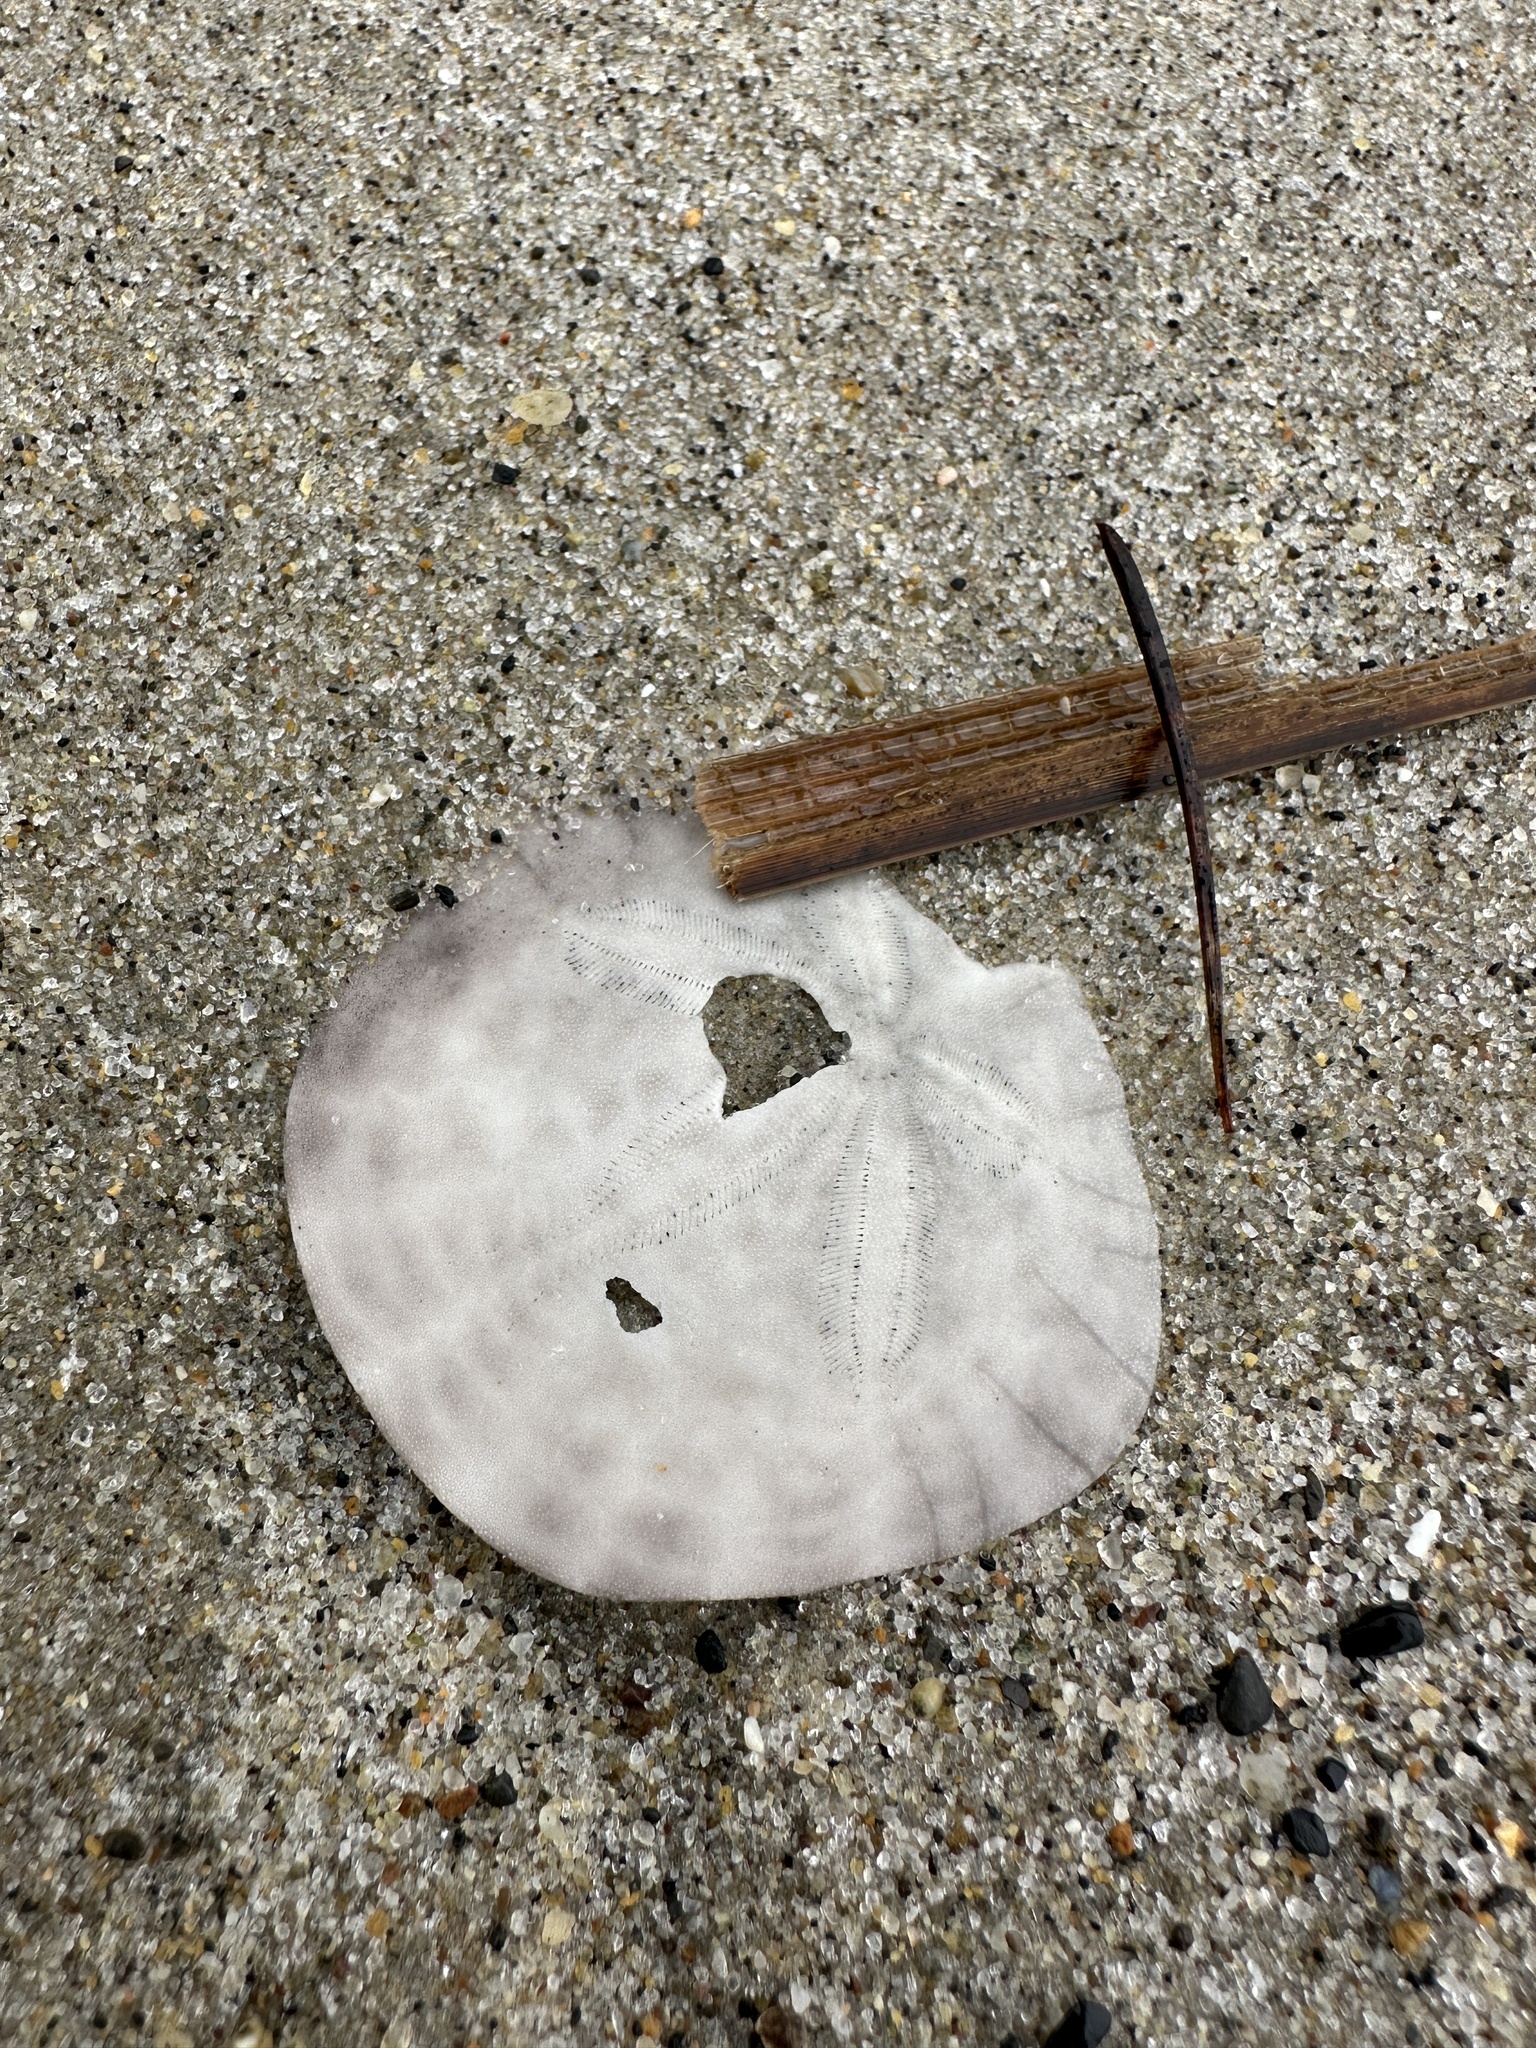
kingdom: Animalia
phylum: Echinodermata
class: Echinoidea
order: Echinolampadacea
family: Dendrasteridae
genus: Dendraster
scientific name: Dendraster excentricus
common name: Eccentric sand dollar sea urchin
